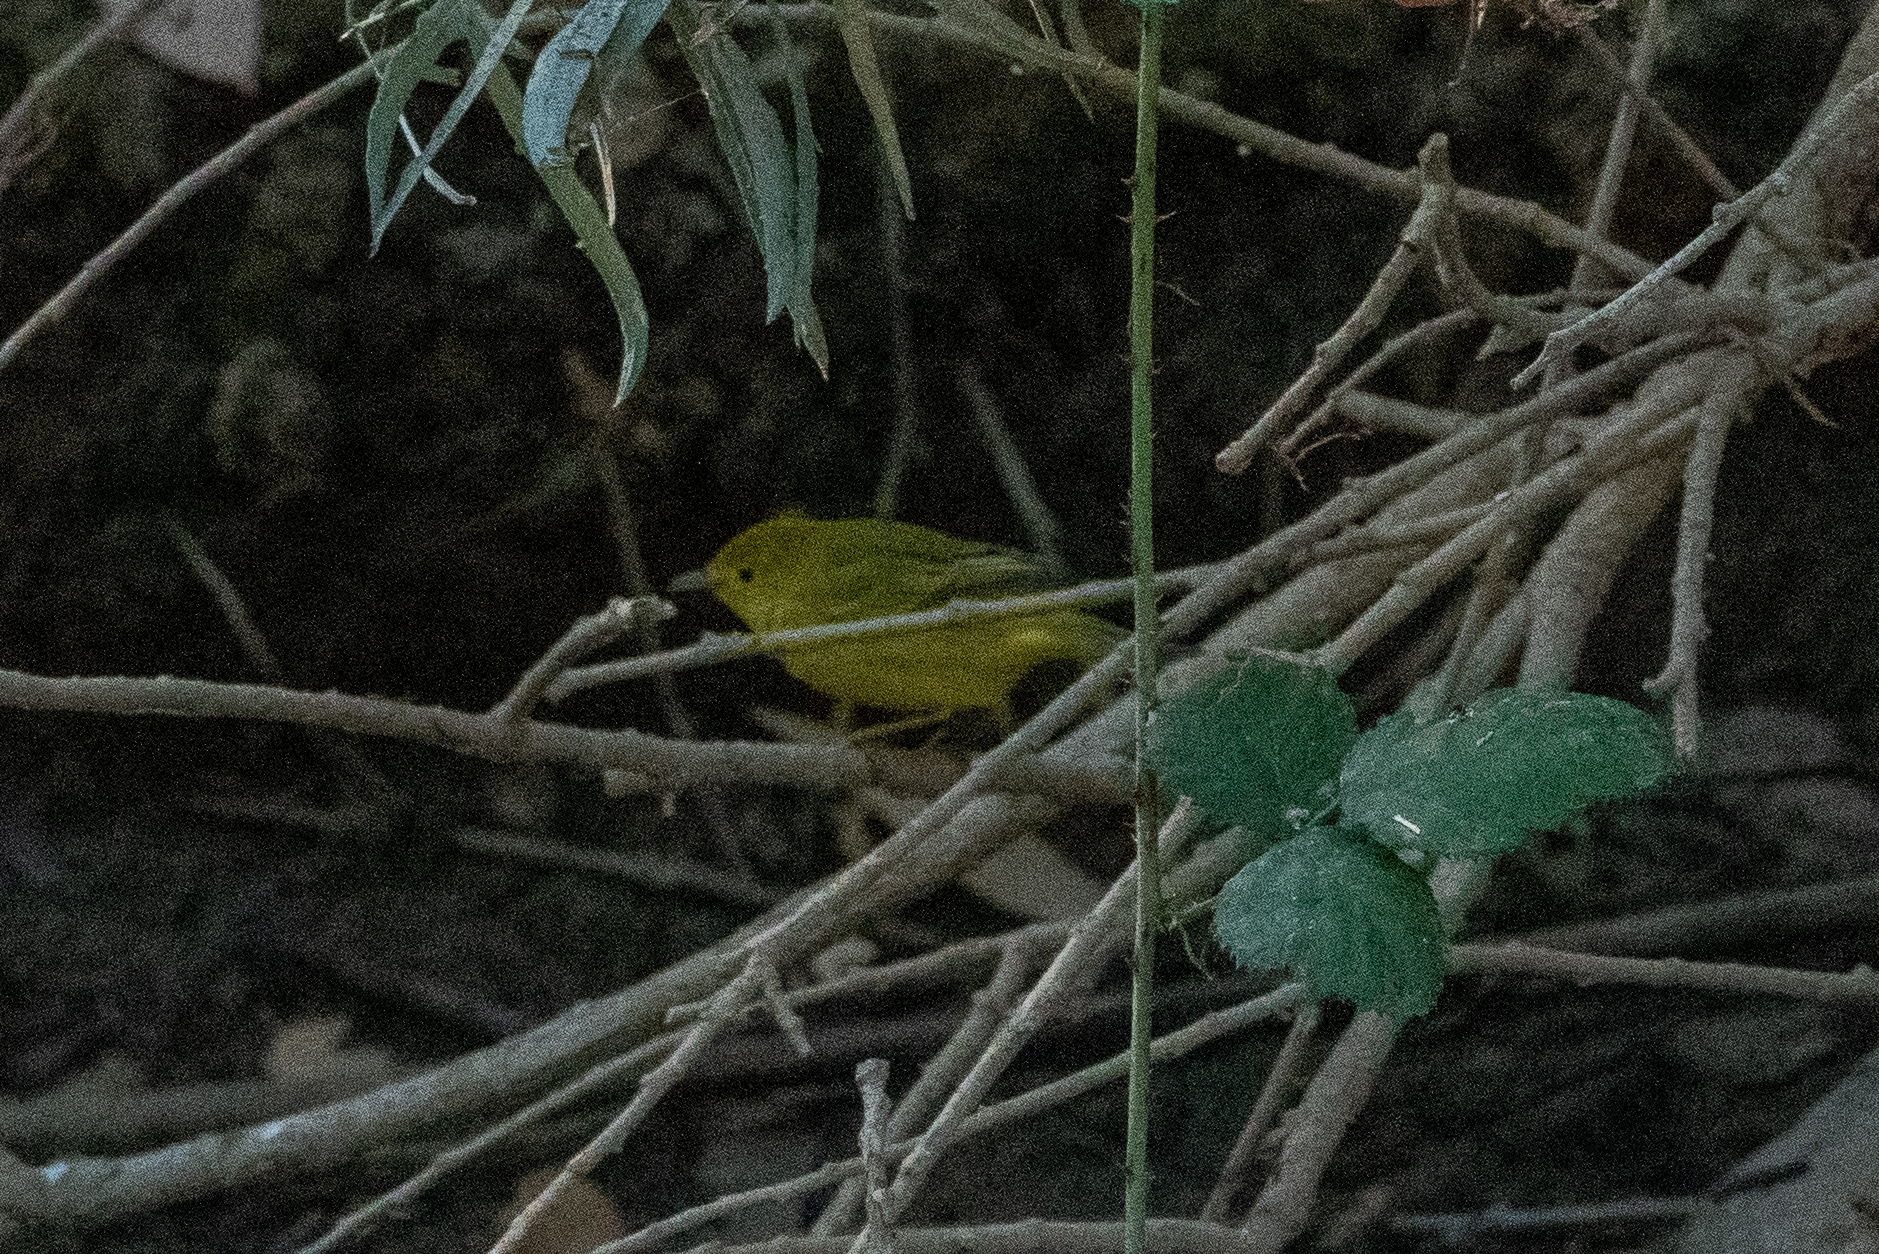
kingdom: Animalia
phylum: Chordata
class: Aves
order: Passeriformes
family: Parulidae
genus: Setophaga
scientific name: Setophaga petechia
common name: Yellow warbler
